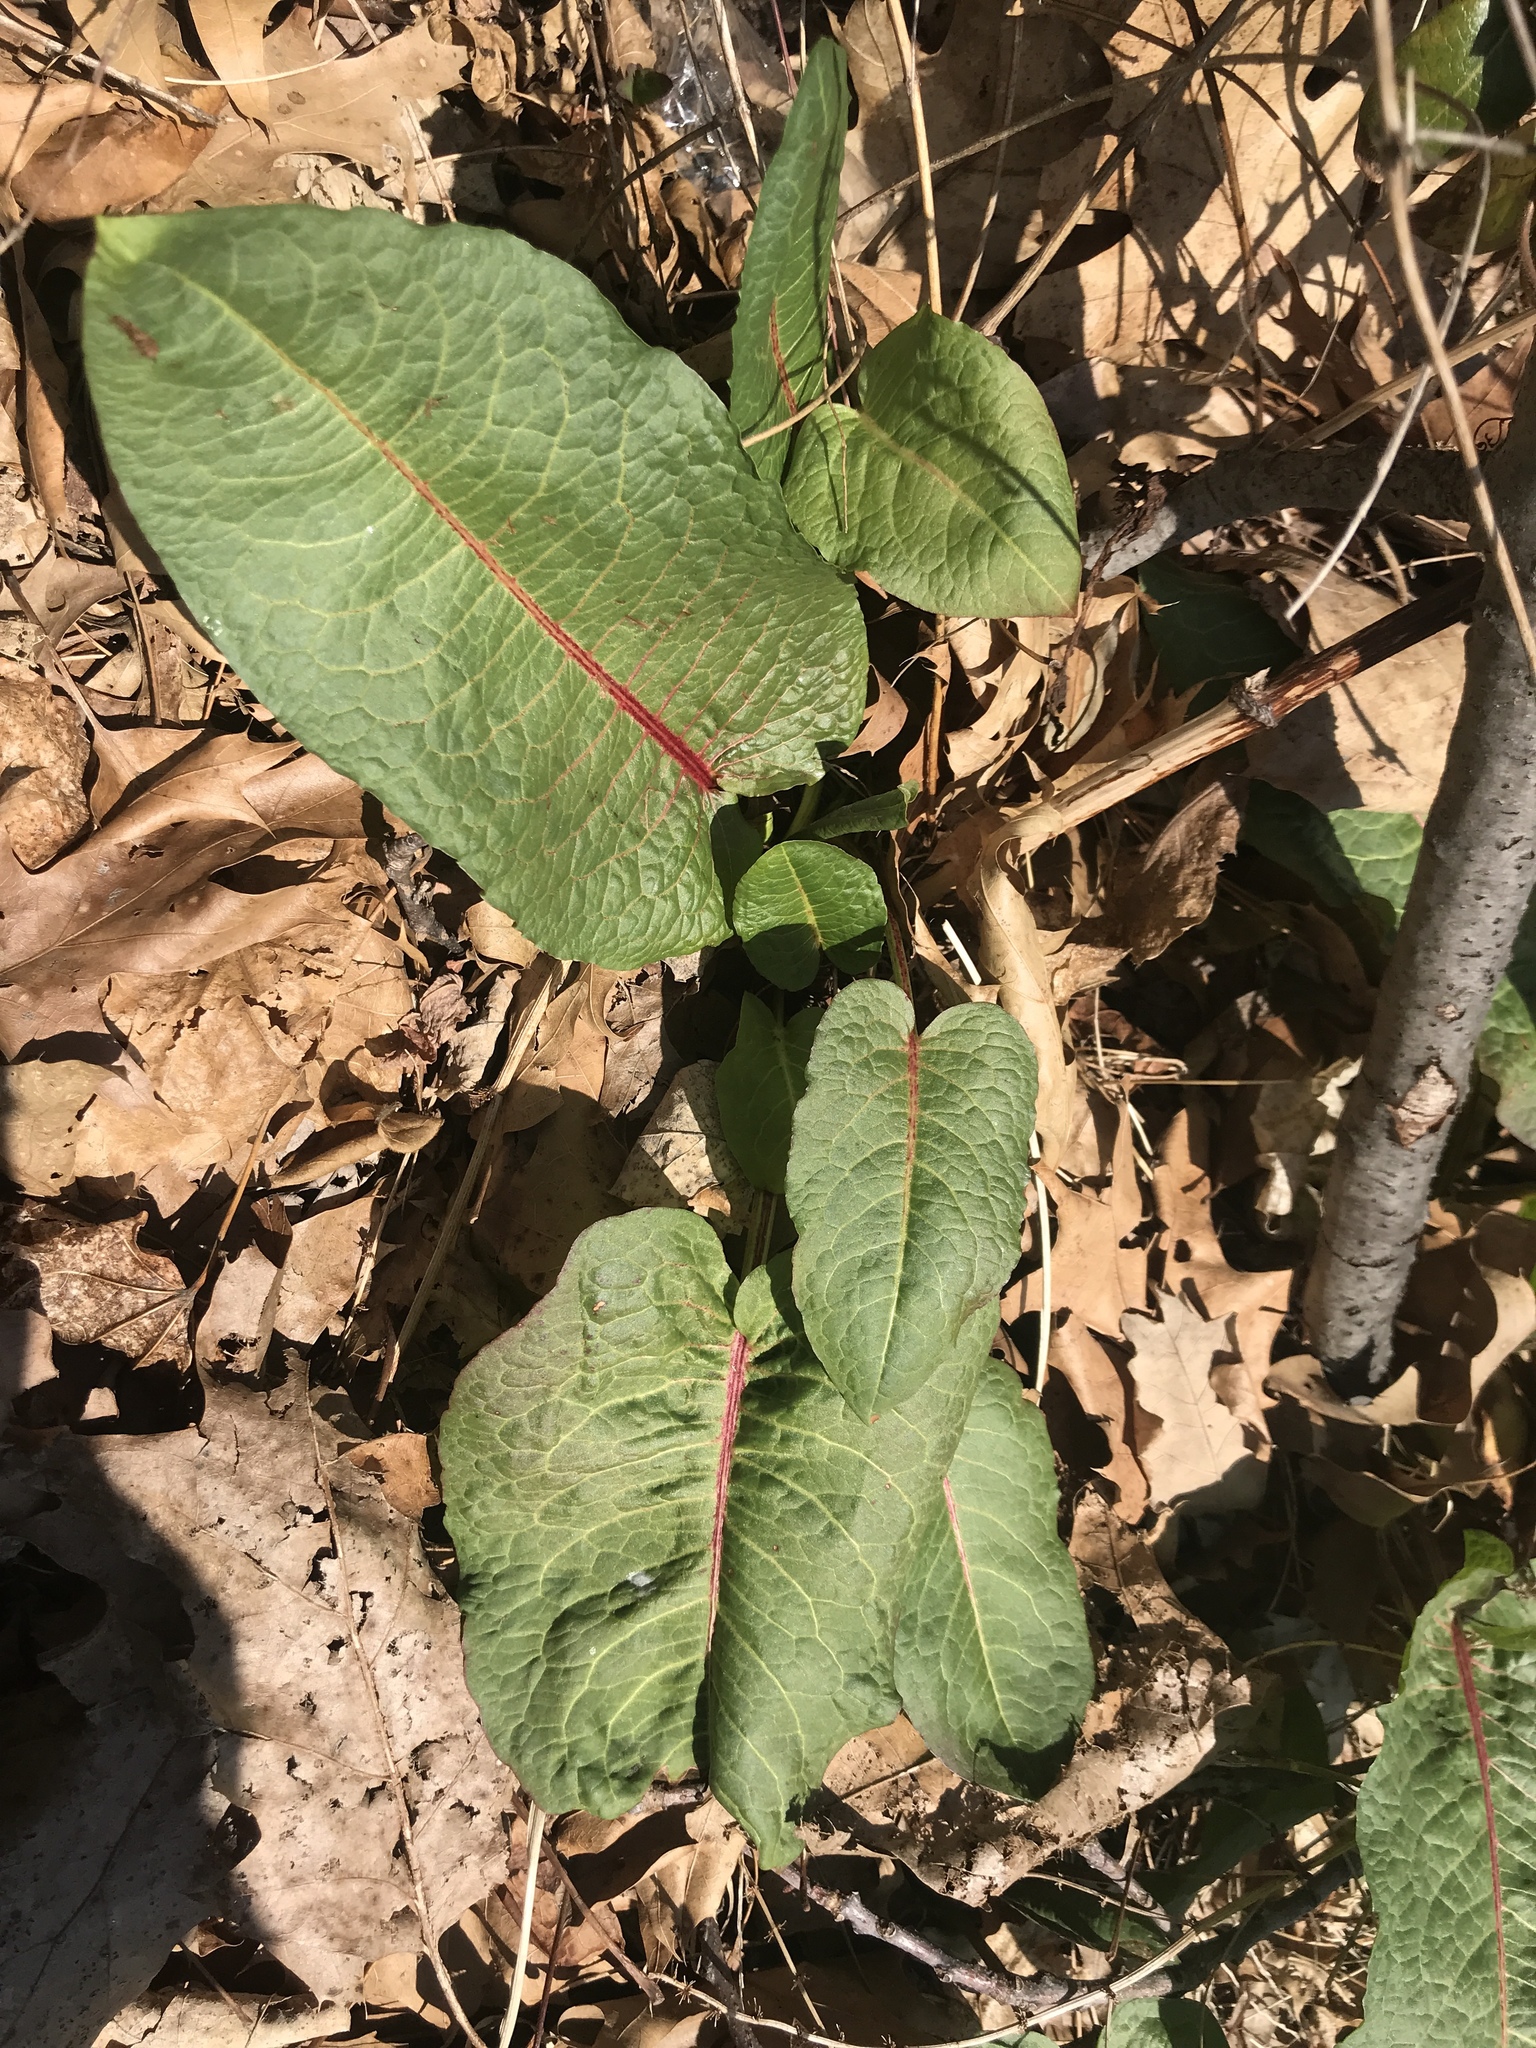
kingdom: Plantae
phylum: Tracheophyta
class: Magnoliopsida
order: Caryophyllales
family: Polygonaceae
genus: Rumex
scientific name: Rumex obtusifolius
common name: Bitter dock
